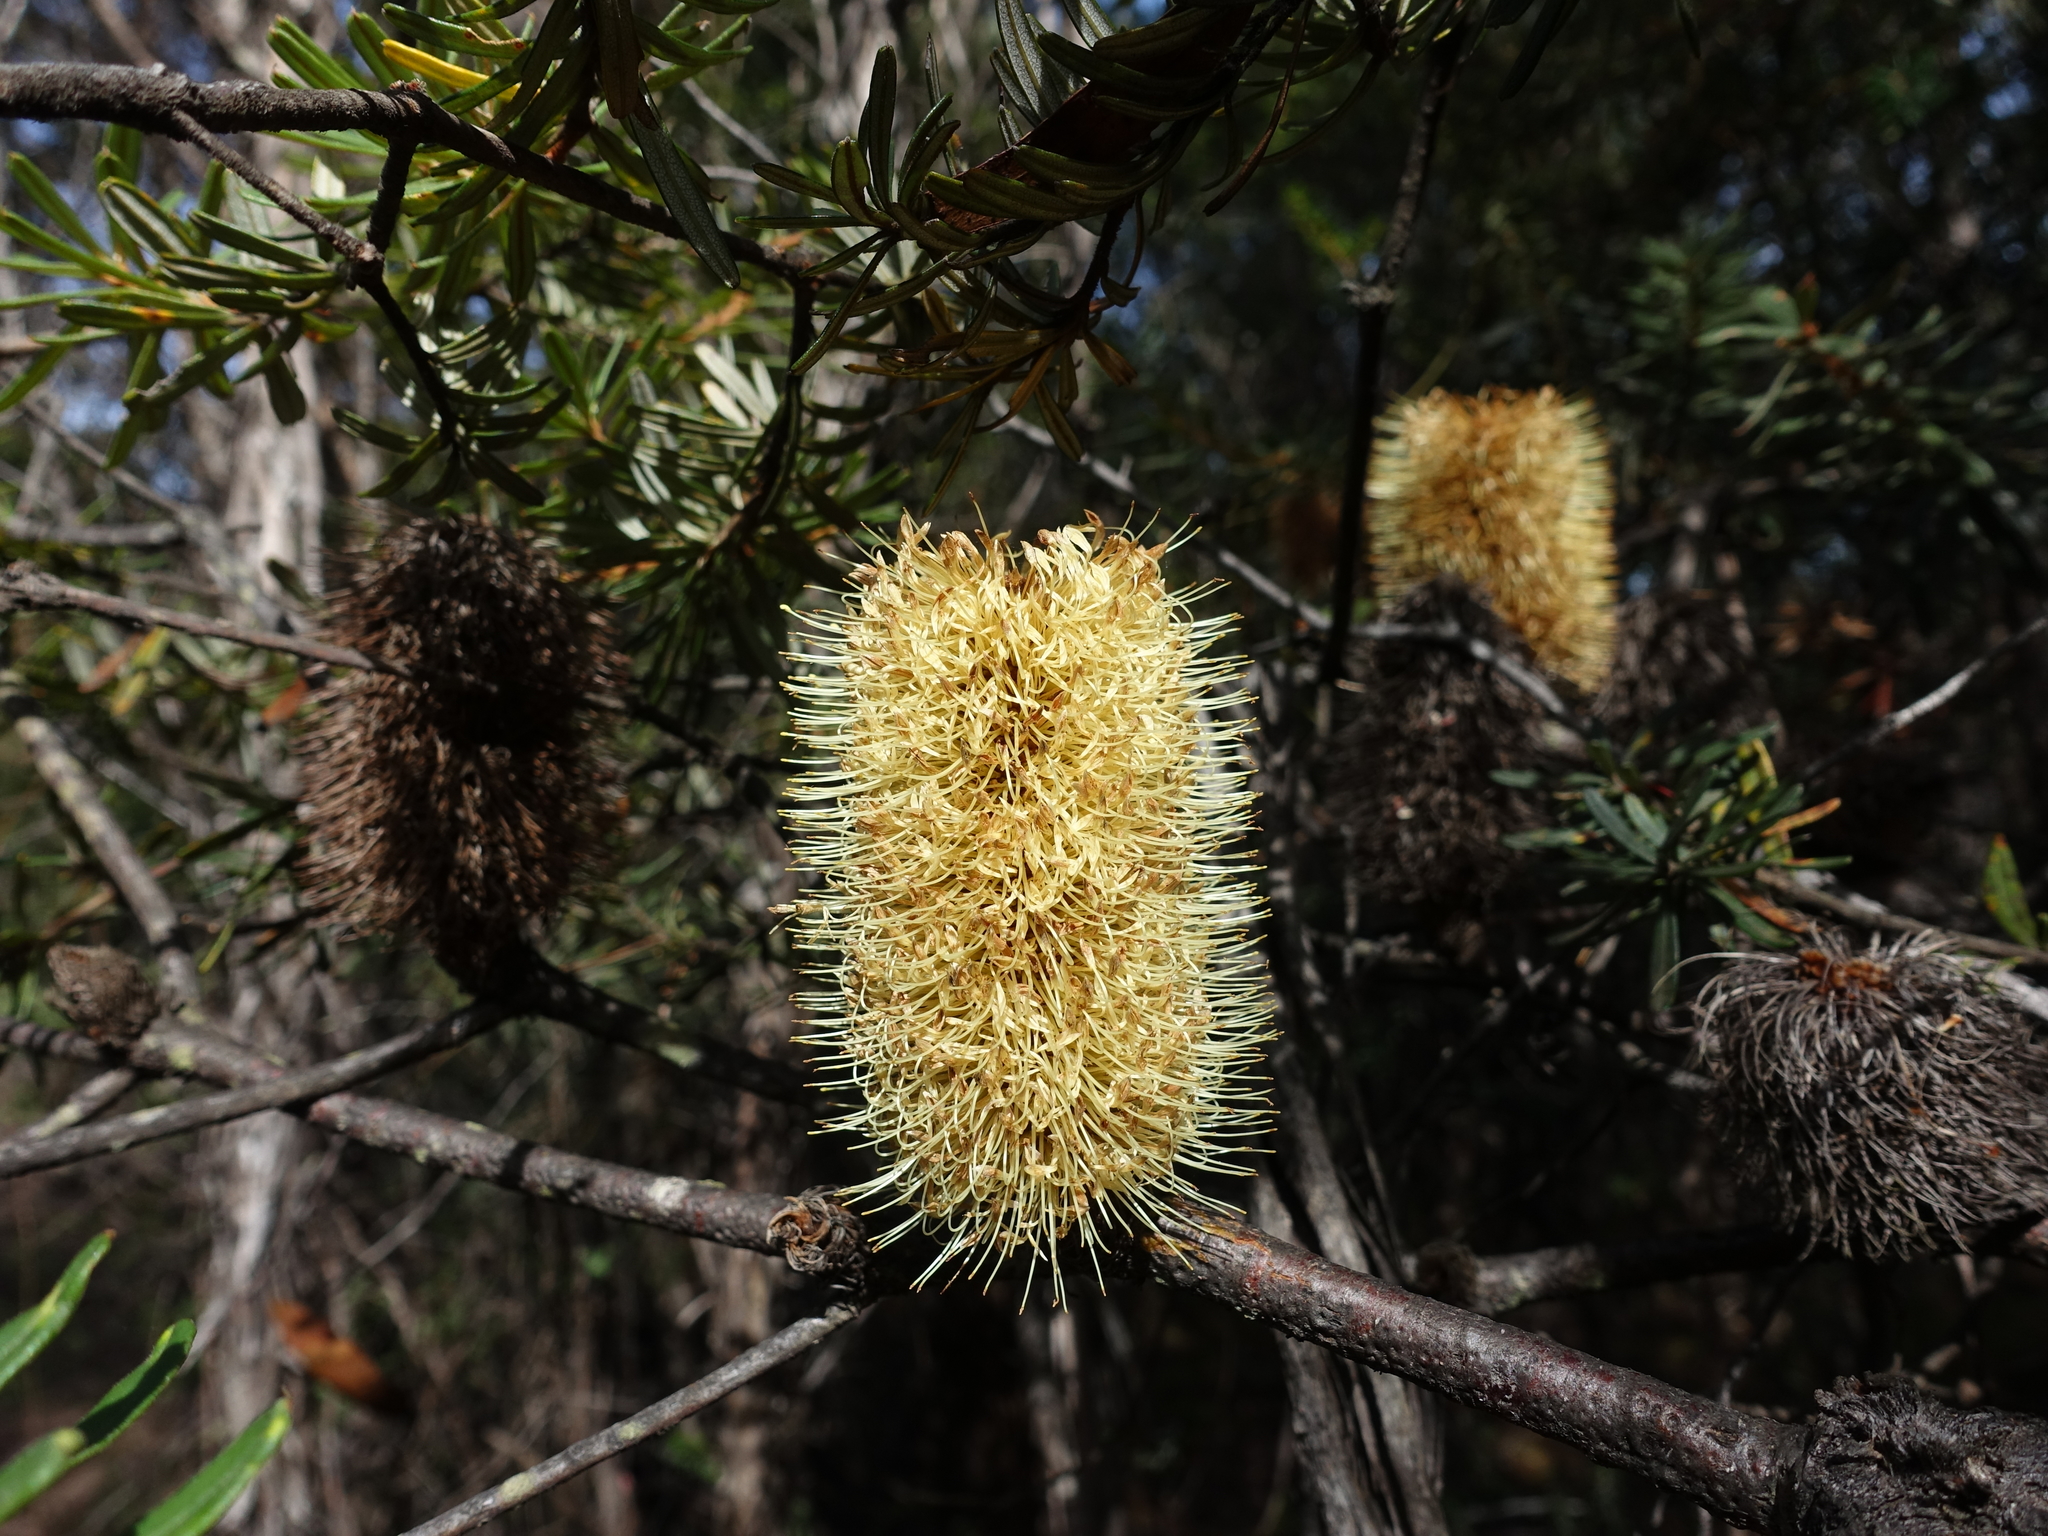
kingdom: Plantae
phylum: Tracheophyta
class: Magnoliopsida
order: Proteales
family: Proteaceae
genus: Banksia
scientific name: Banksia marginata
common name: Silver banksia
